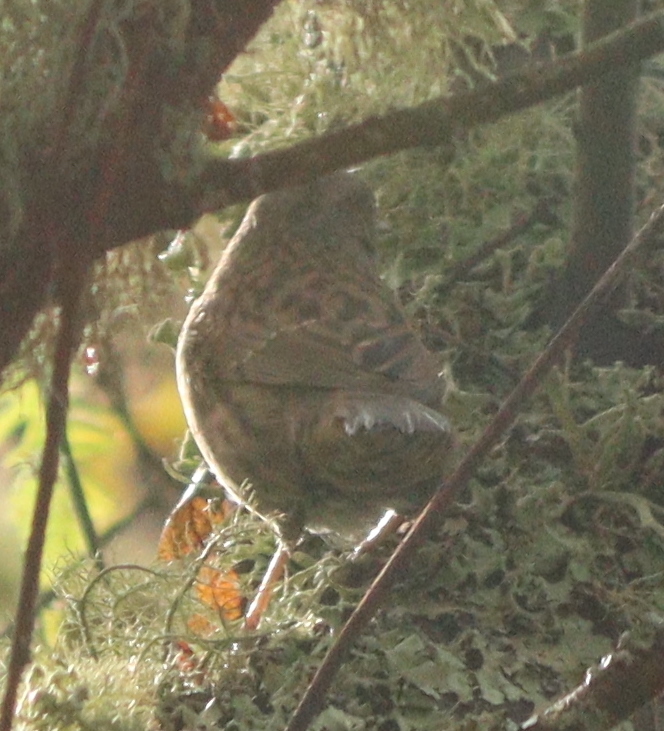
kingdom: Animalia
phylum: Chordata
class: Aves
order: Passeriformes
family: Prunellidae
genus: Prunella
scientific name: Prunella modularis
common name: Dunnock
